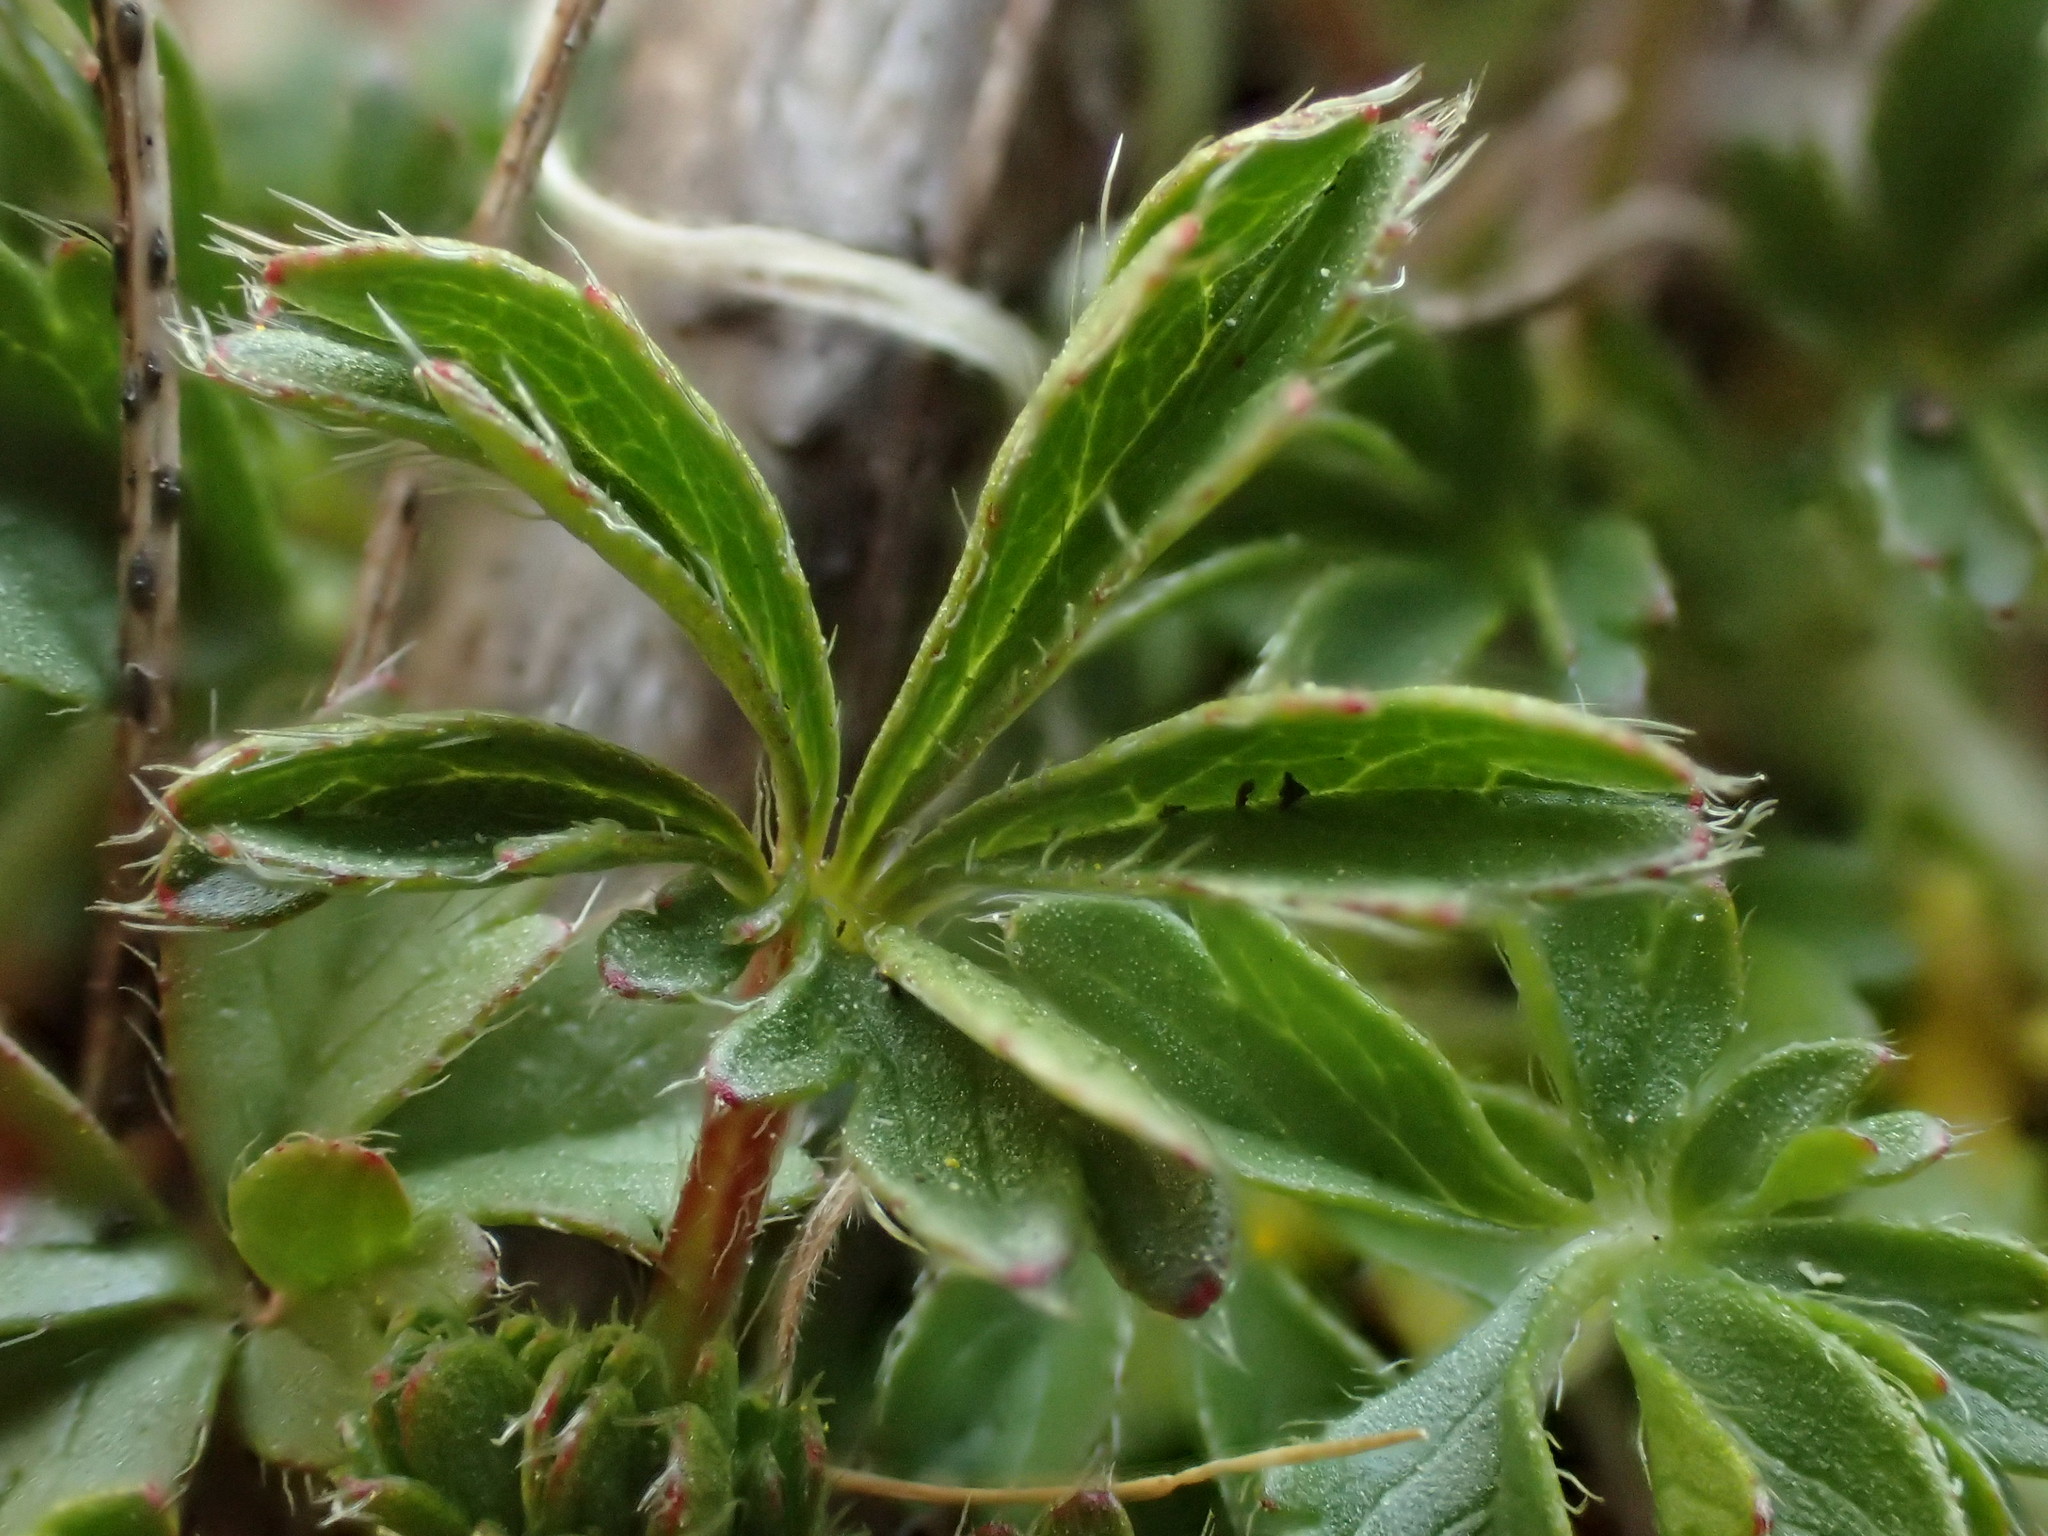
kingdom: Plantae
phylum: Tracheophyta
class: Magnoliopsida
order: Rosales
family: Rosaceae
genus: Potentilla
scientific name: Potentilla verna
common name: Spring cinquefoil
